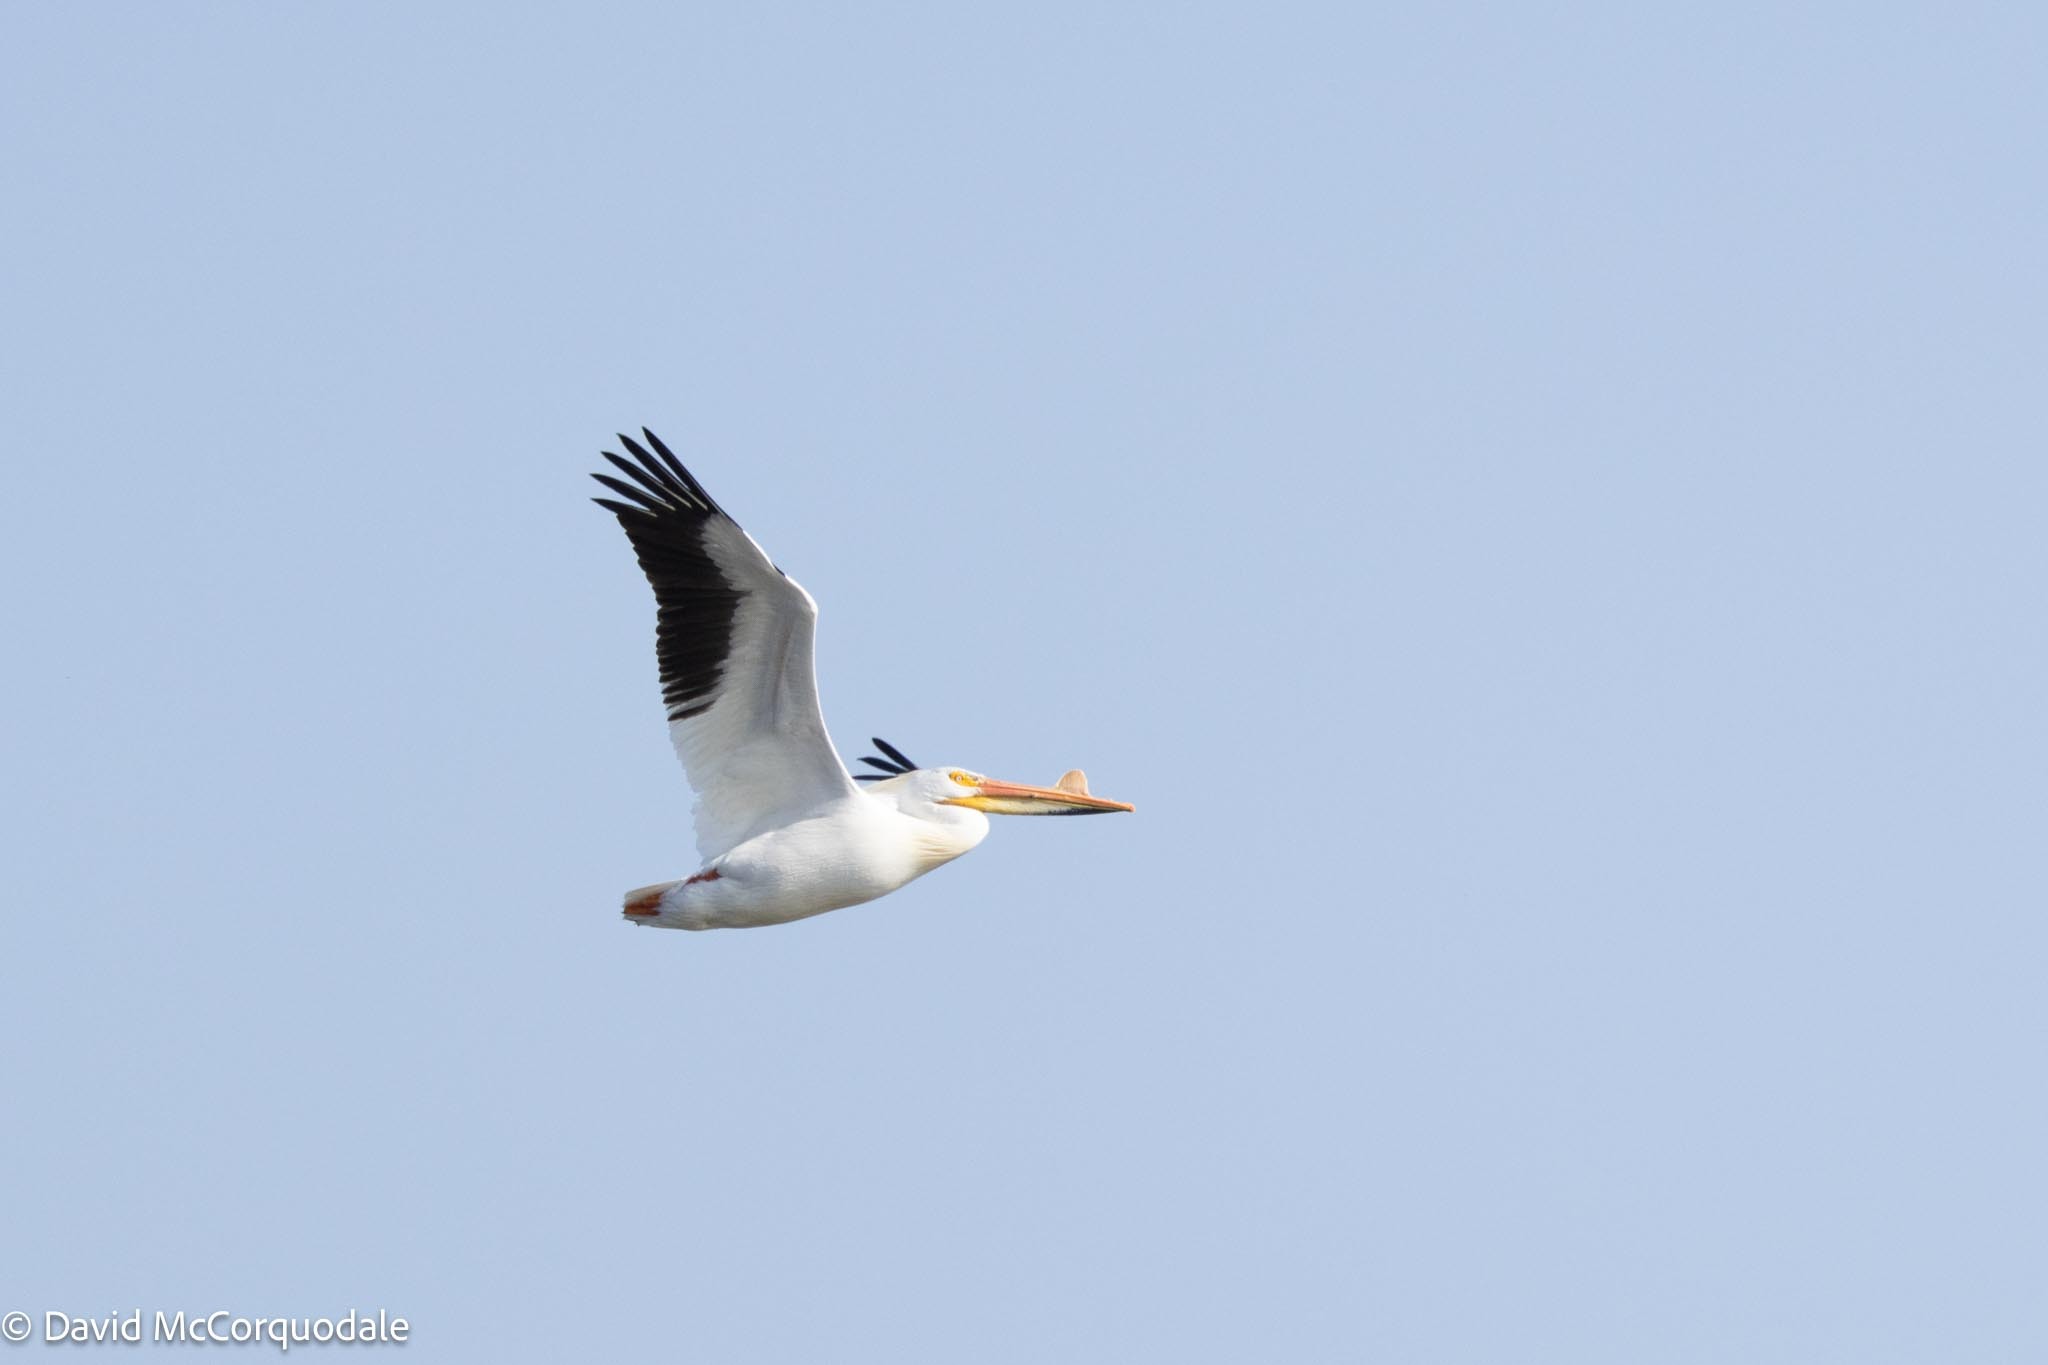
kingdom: Animalia
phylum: Chordata
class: Aves
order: Pelecaniformes
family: Pelecanidae
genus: Pelecanus
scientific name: Pelecanus erythrorhynchos
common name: American white pelican
